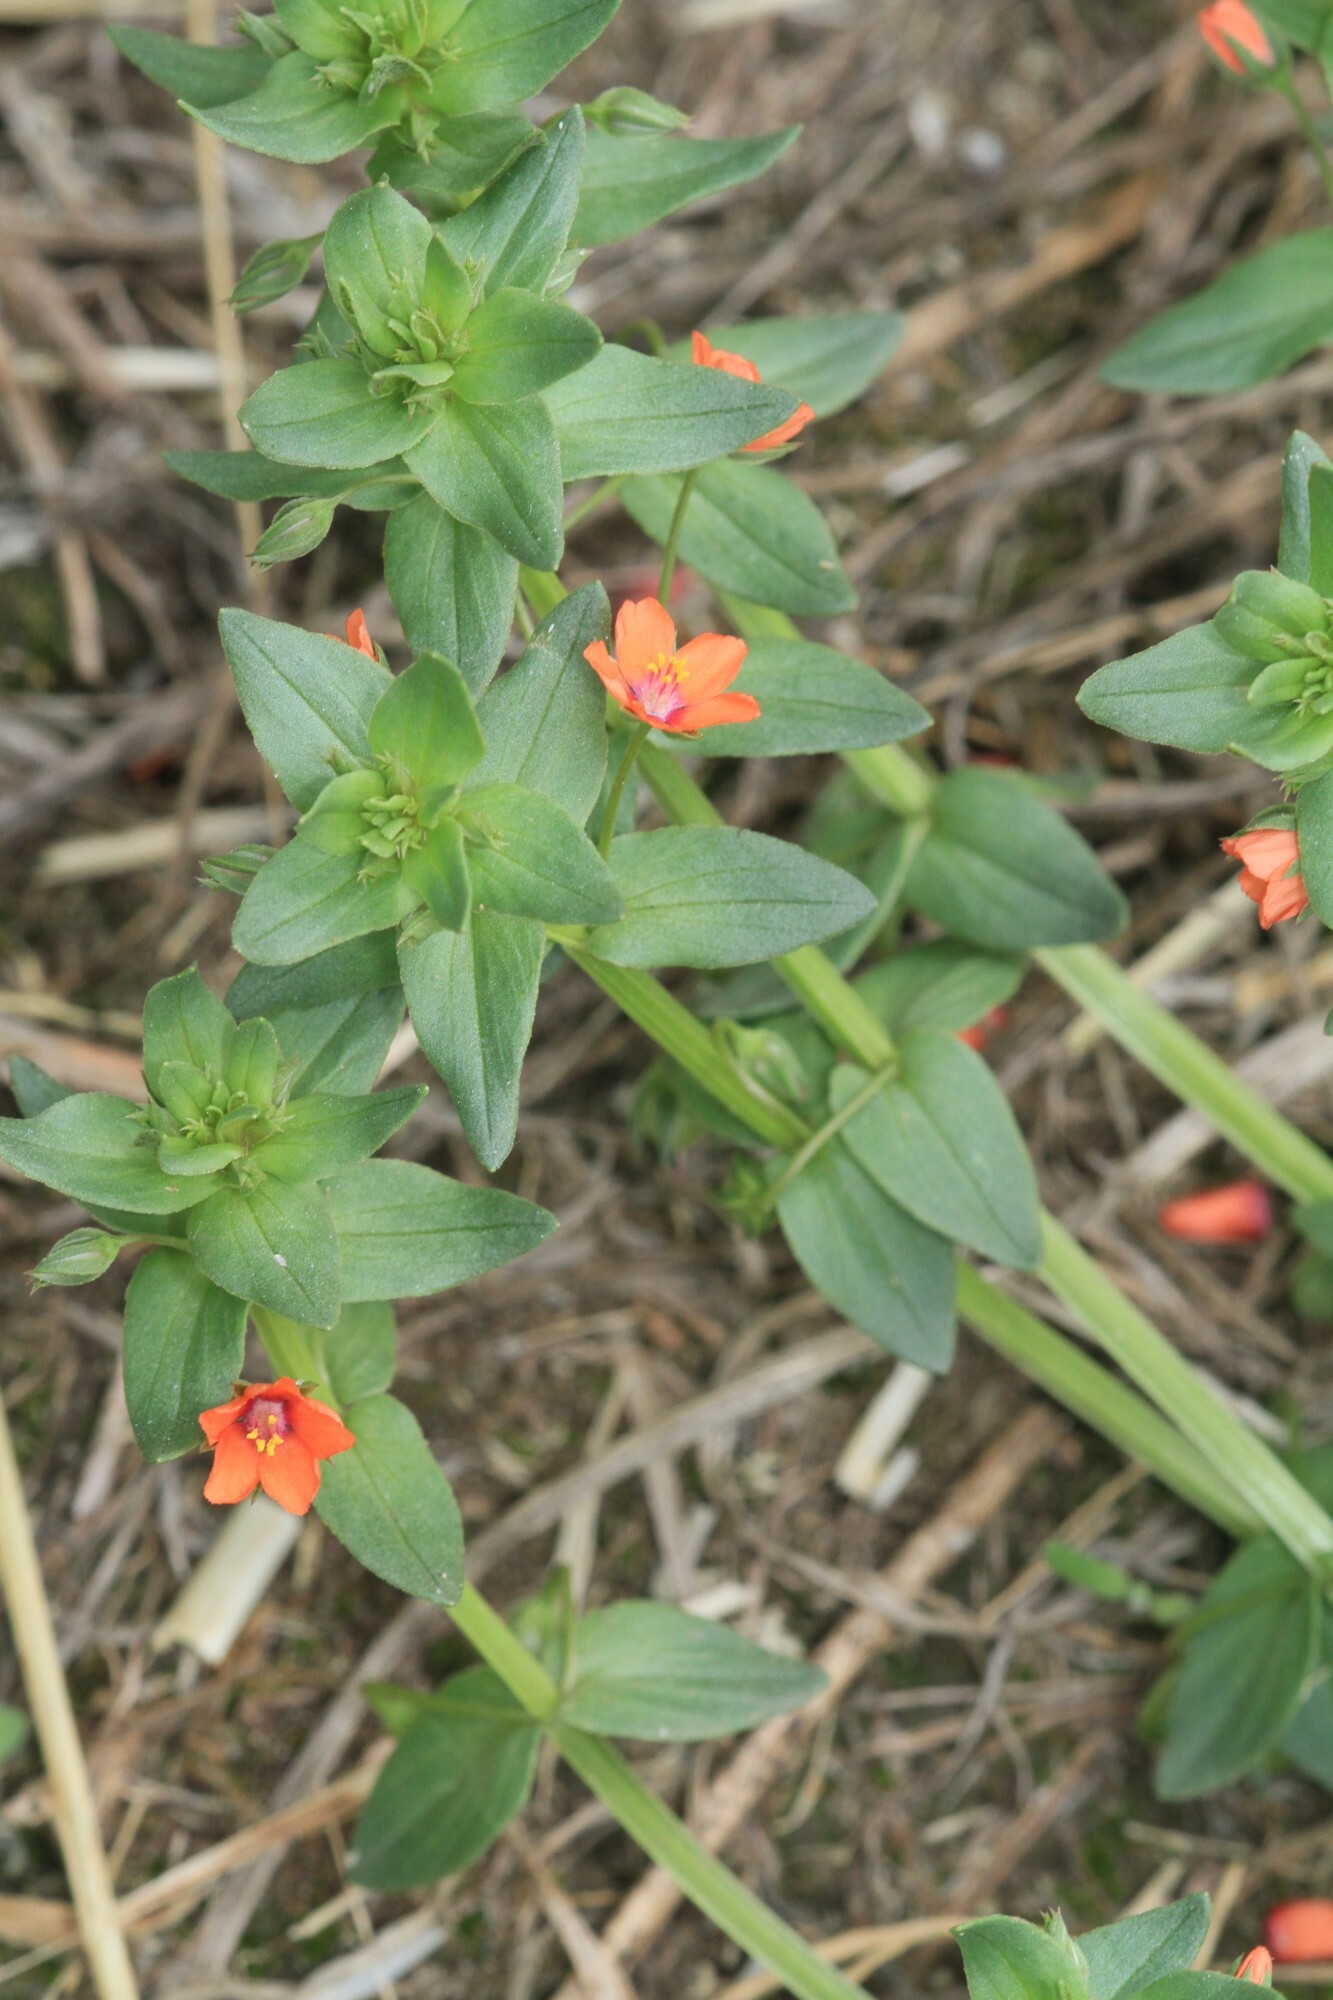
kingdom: Plantae
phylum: Tracheophyta
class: Magnoliopsida
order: Ericales
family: Primulaceae
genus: Lysimachia
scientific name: Lysimachia arvensis
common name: Scarlet pimpernel
